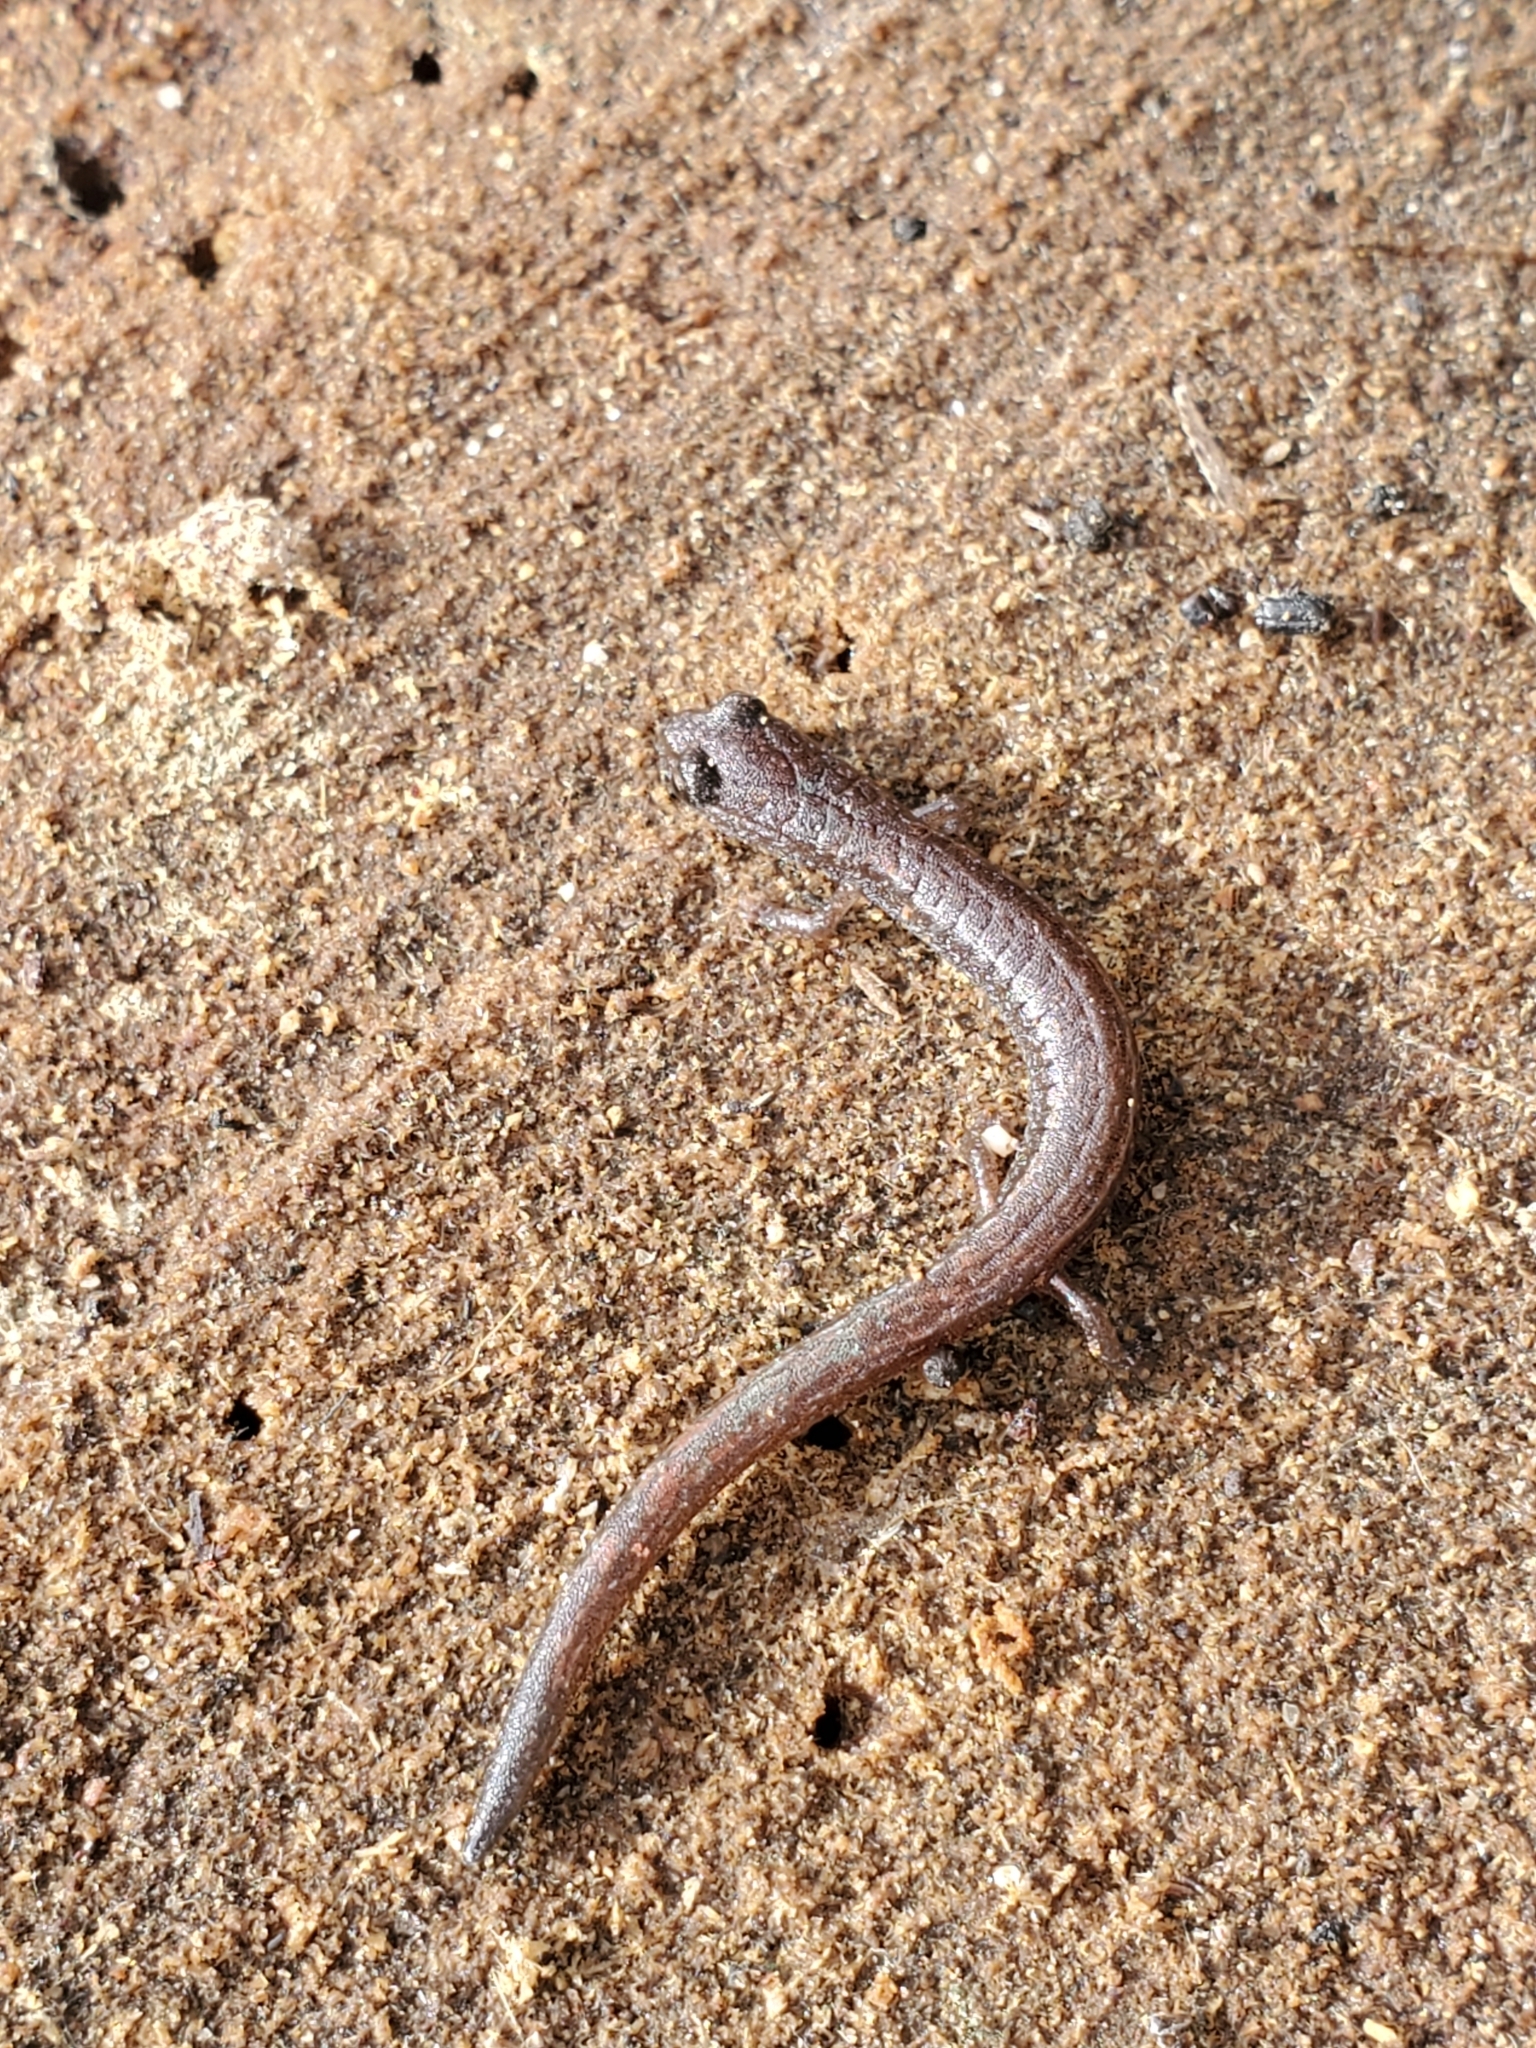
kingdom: Animalia
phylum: Chordata
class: Amphibia
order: Caudata
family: Plethodontidae
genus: Batrachoseps
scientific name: Batrachoseps major
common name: Garden slender salamander
